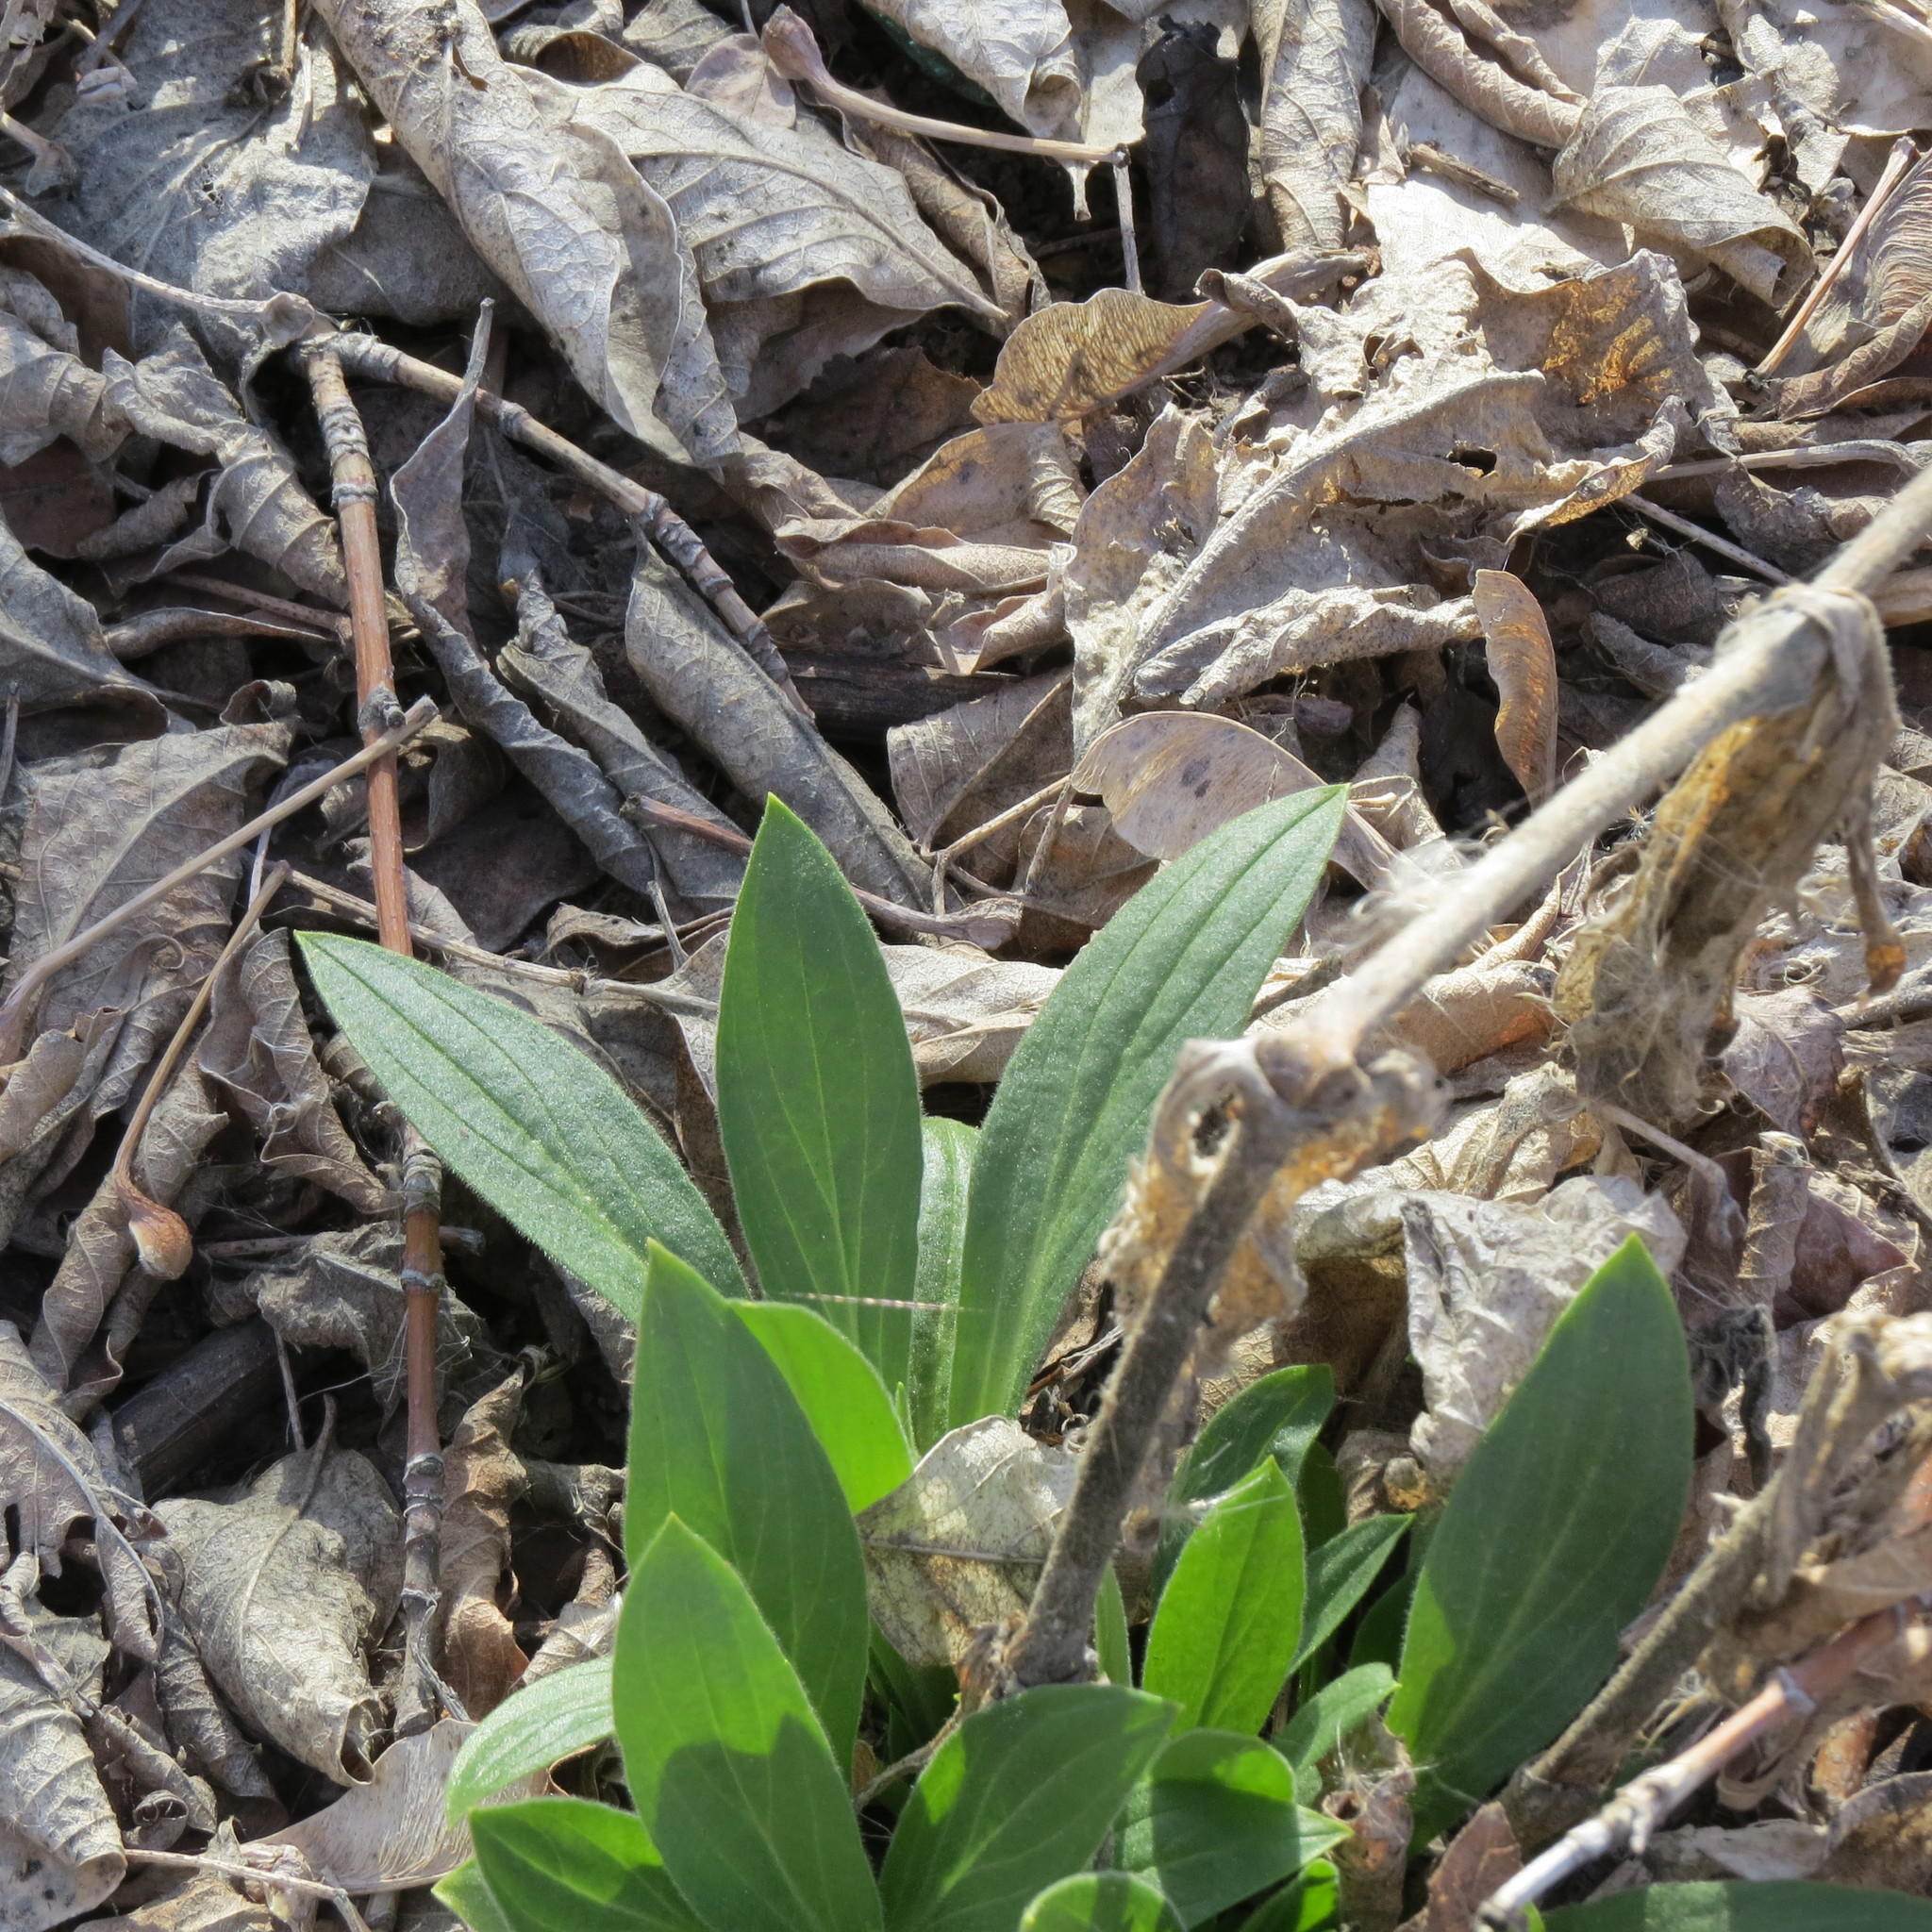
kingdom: Plantae
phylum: Tracheophyta
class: Magnoliopsida
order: Caryophyllales
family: Caryophyllaceae
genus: Silene
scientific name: Silene latifolia
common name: White campion
